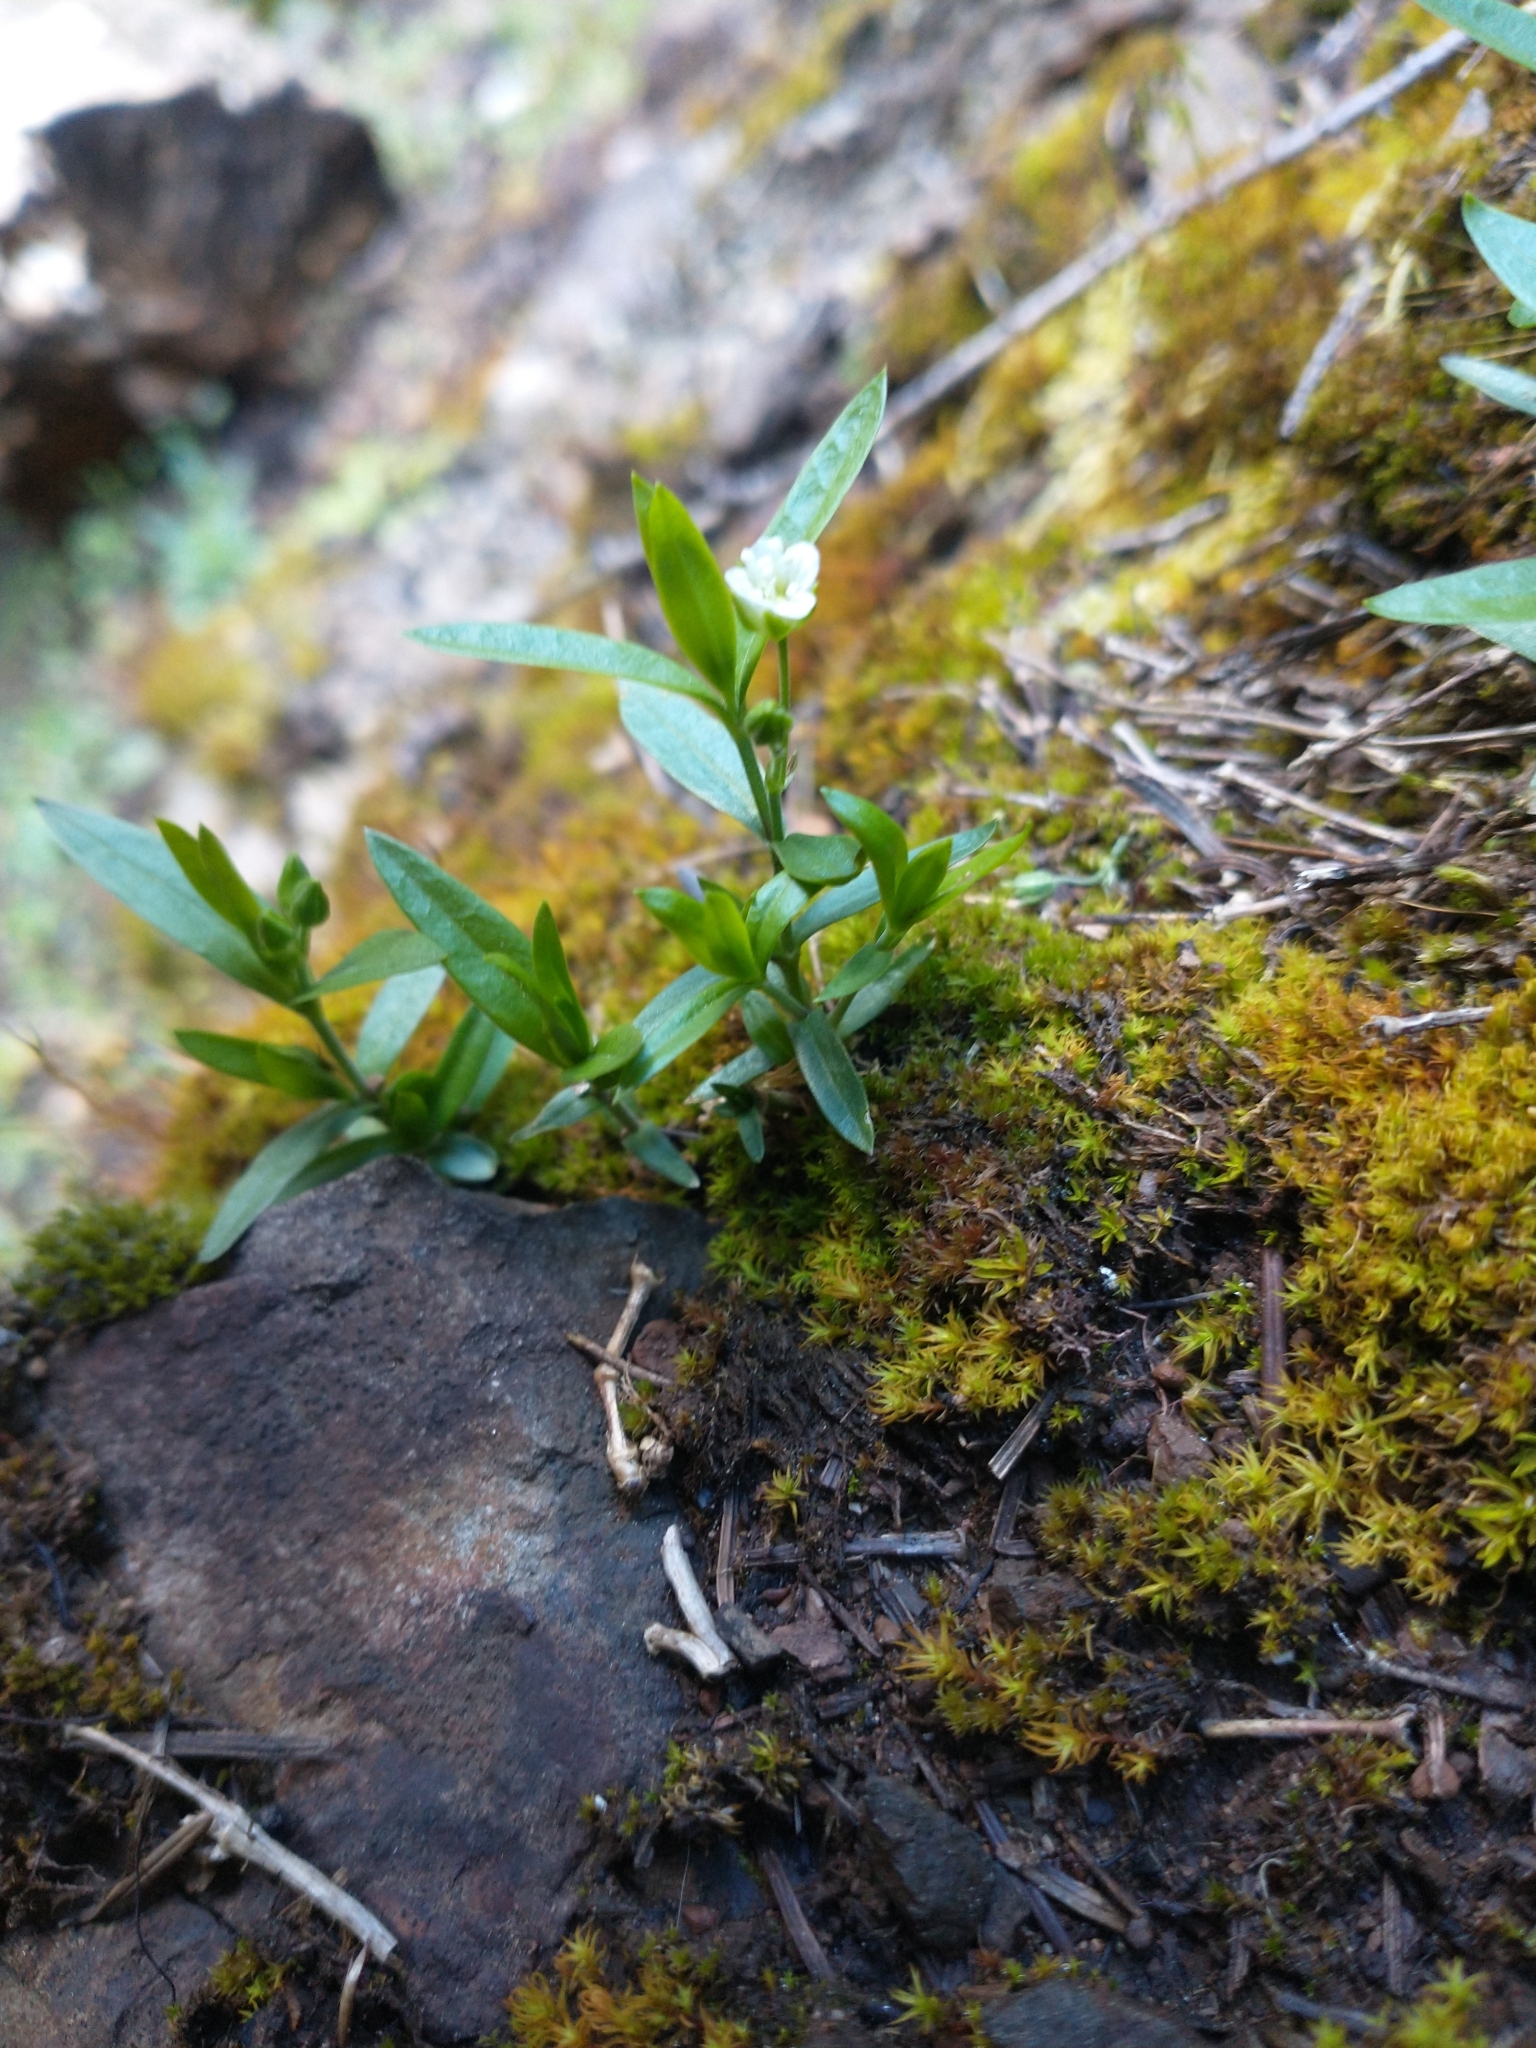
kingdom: Plantae
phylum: Tracheophyta
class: Magnoliopsida
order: Caryophyllales
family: Caryophyllaceae
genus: Moehringia
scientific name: Moehringia macrophylla
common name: Big-leaf sandwort
